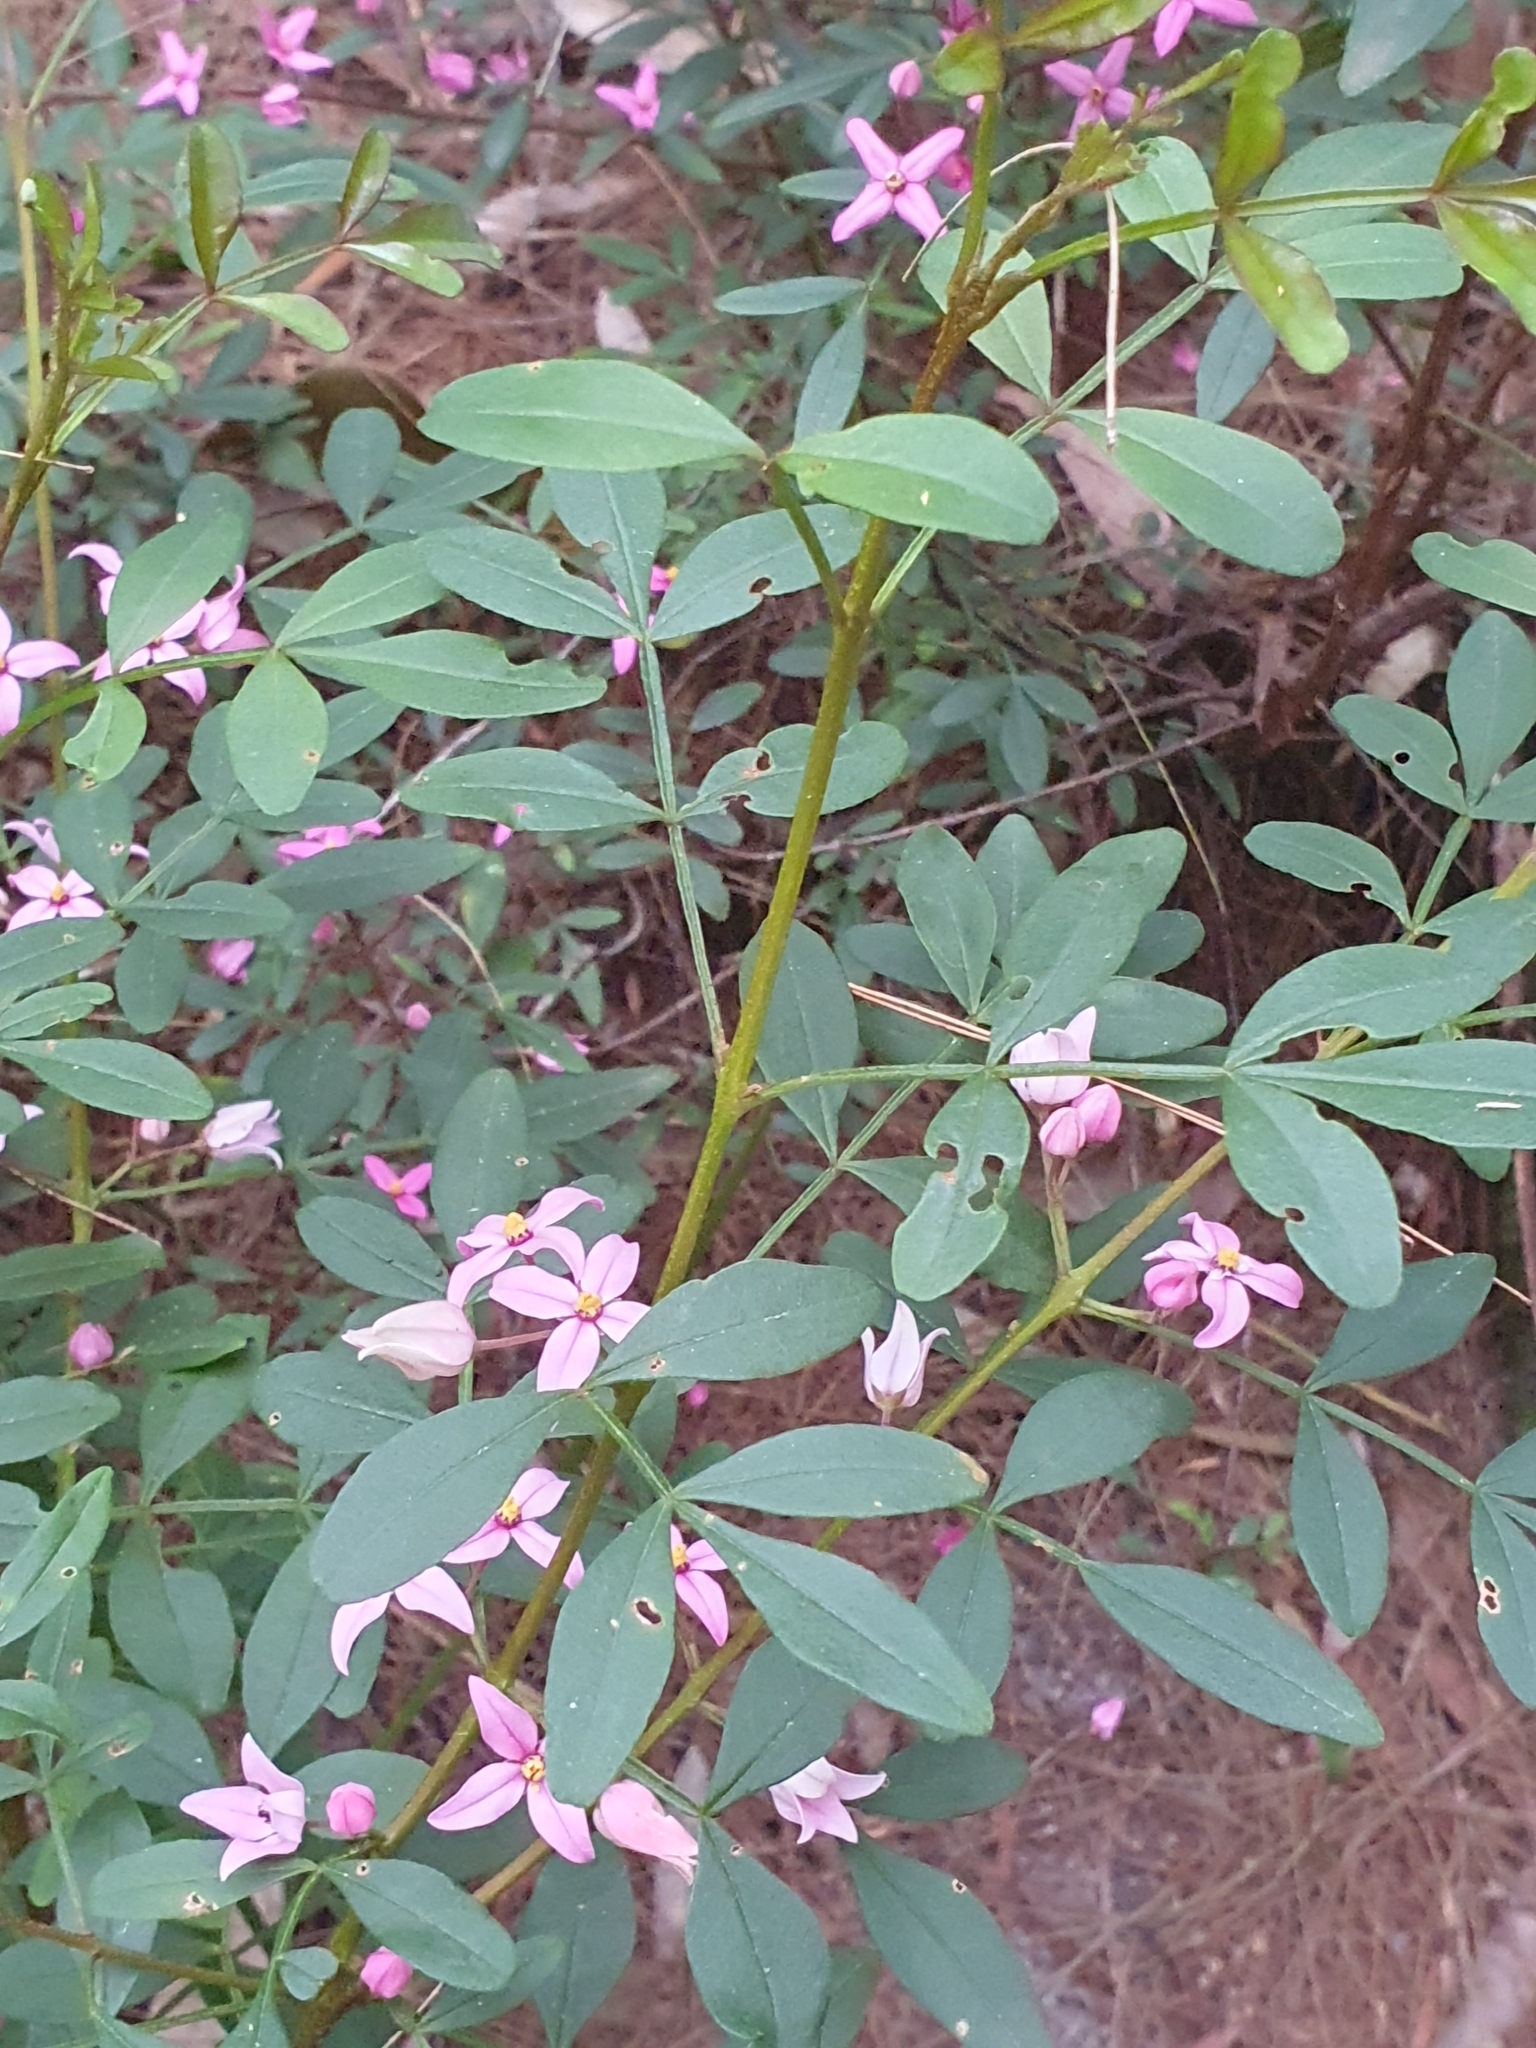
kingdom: Plantae
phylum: Tracheophyta
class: Magnoliopsida
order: Sapindales
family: Rutaceae
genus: Boronia
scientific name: Boronia fraseri
